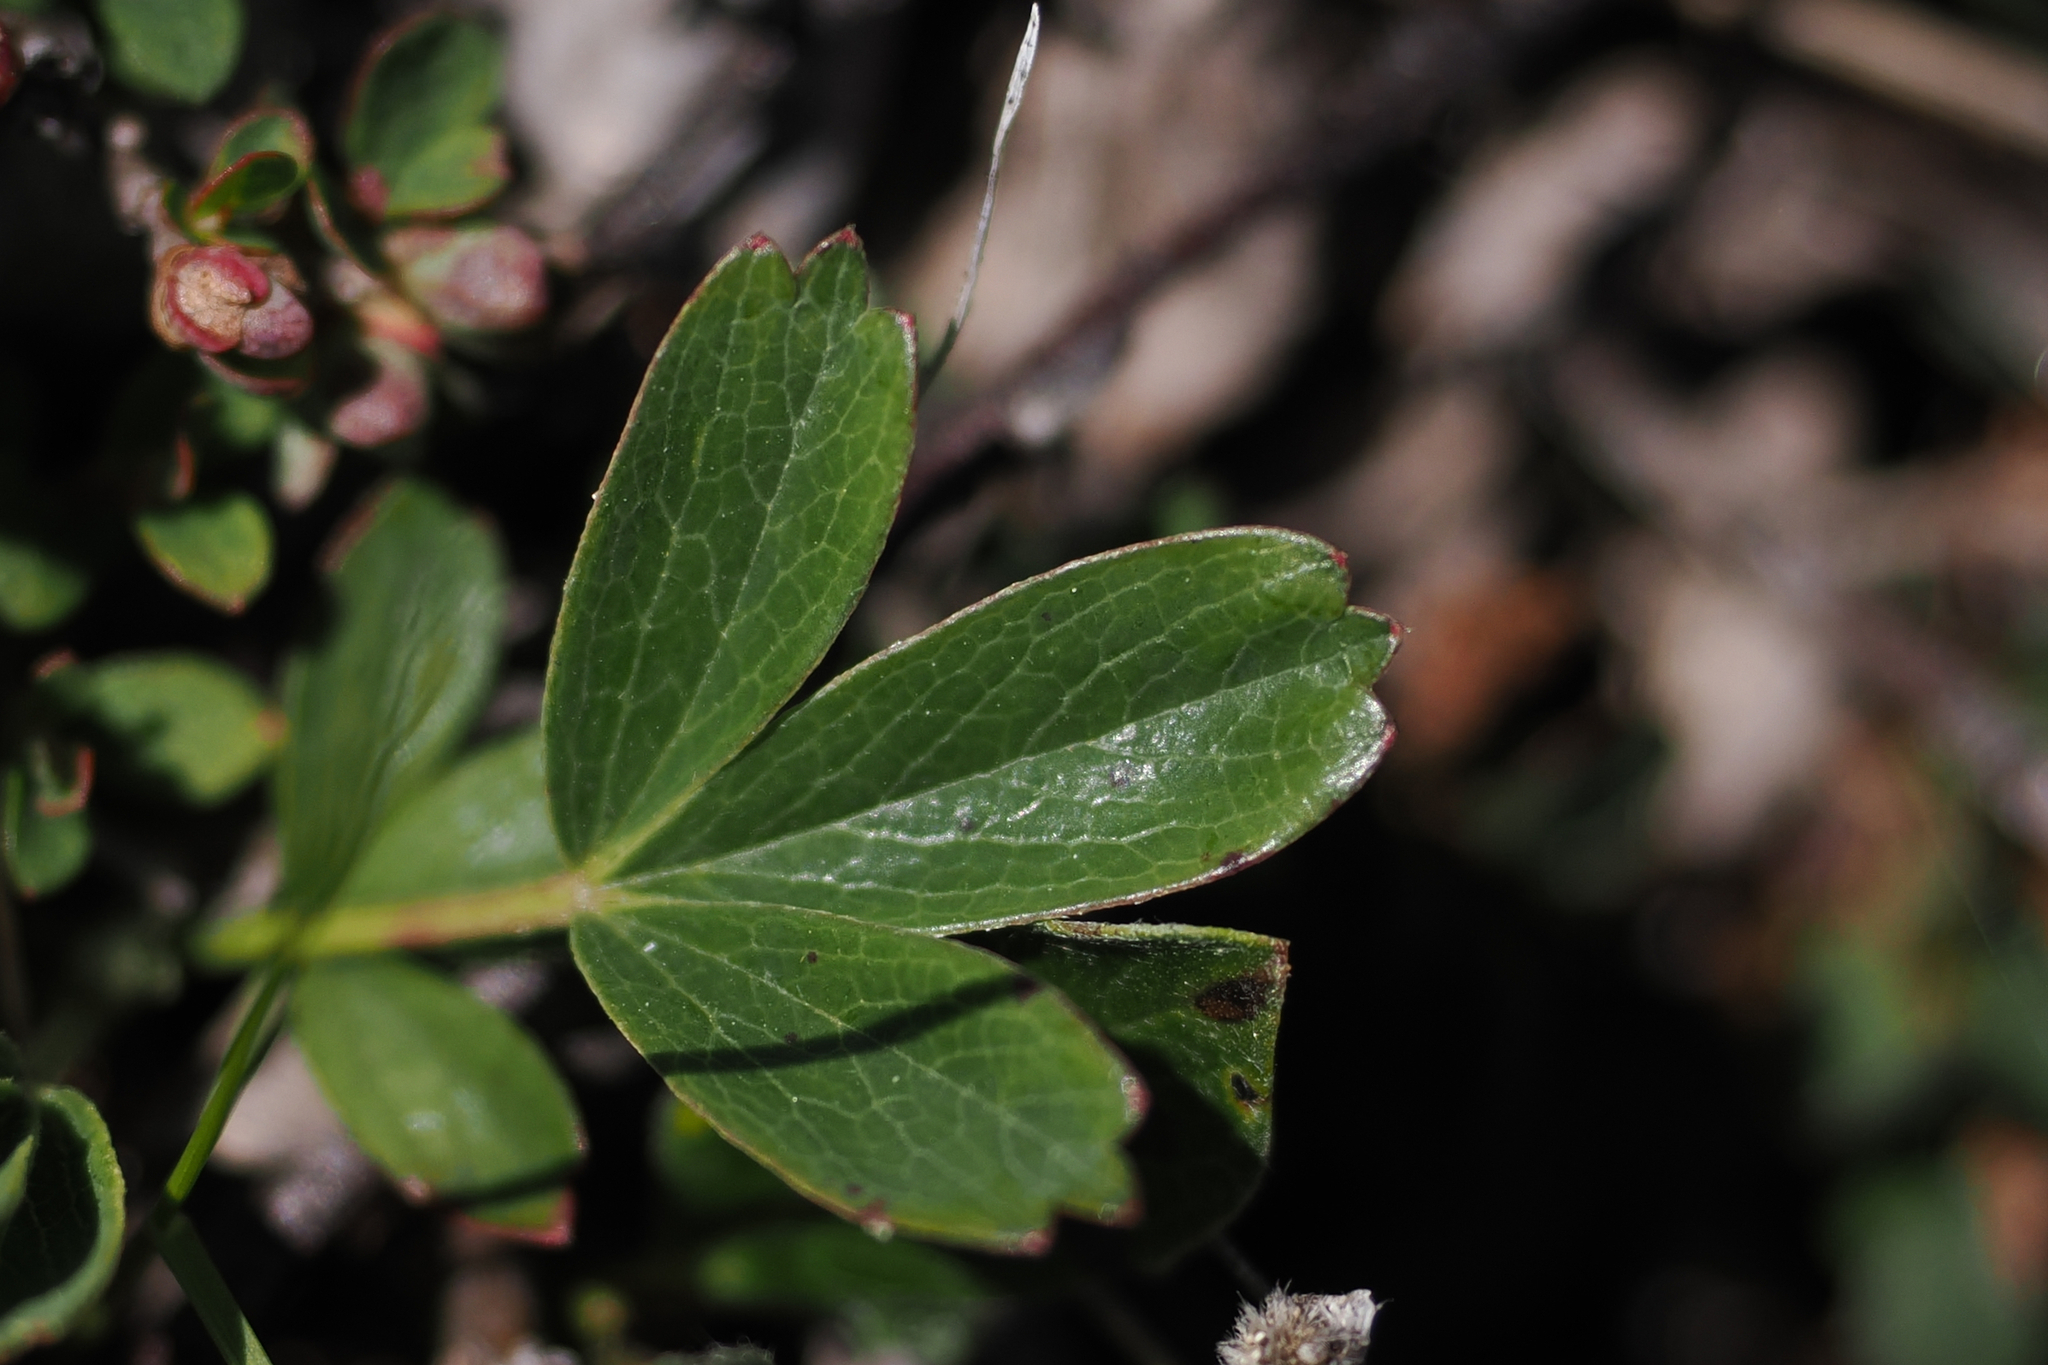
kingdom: Plantae
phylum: Tracheophyta
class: Magnoliopsida
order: Rosales
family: Rosaceae
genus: Sibbaldia
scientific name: Sibbaldia tridentata
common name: Three-toothed cinquefoil
